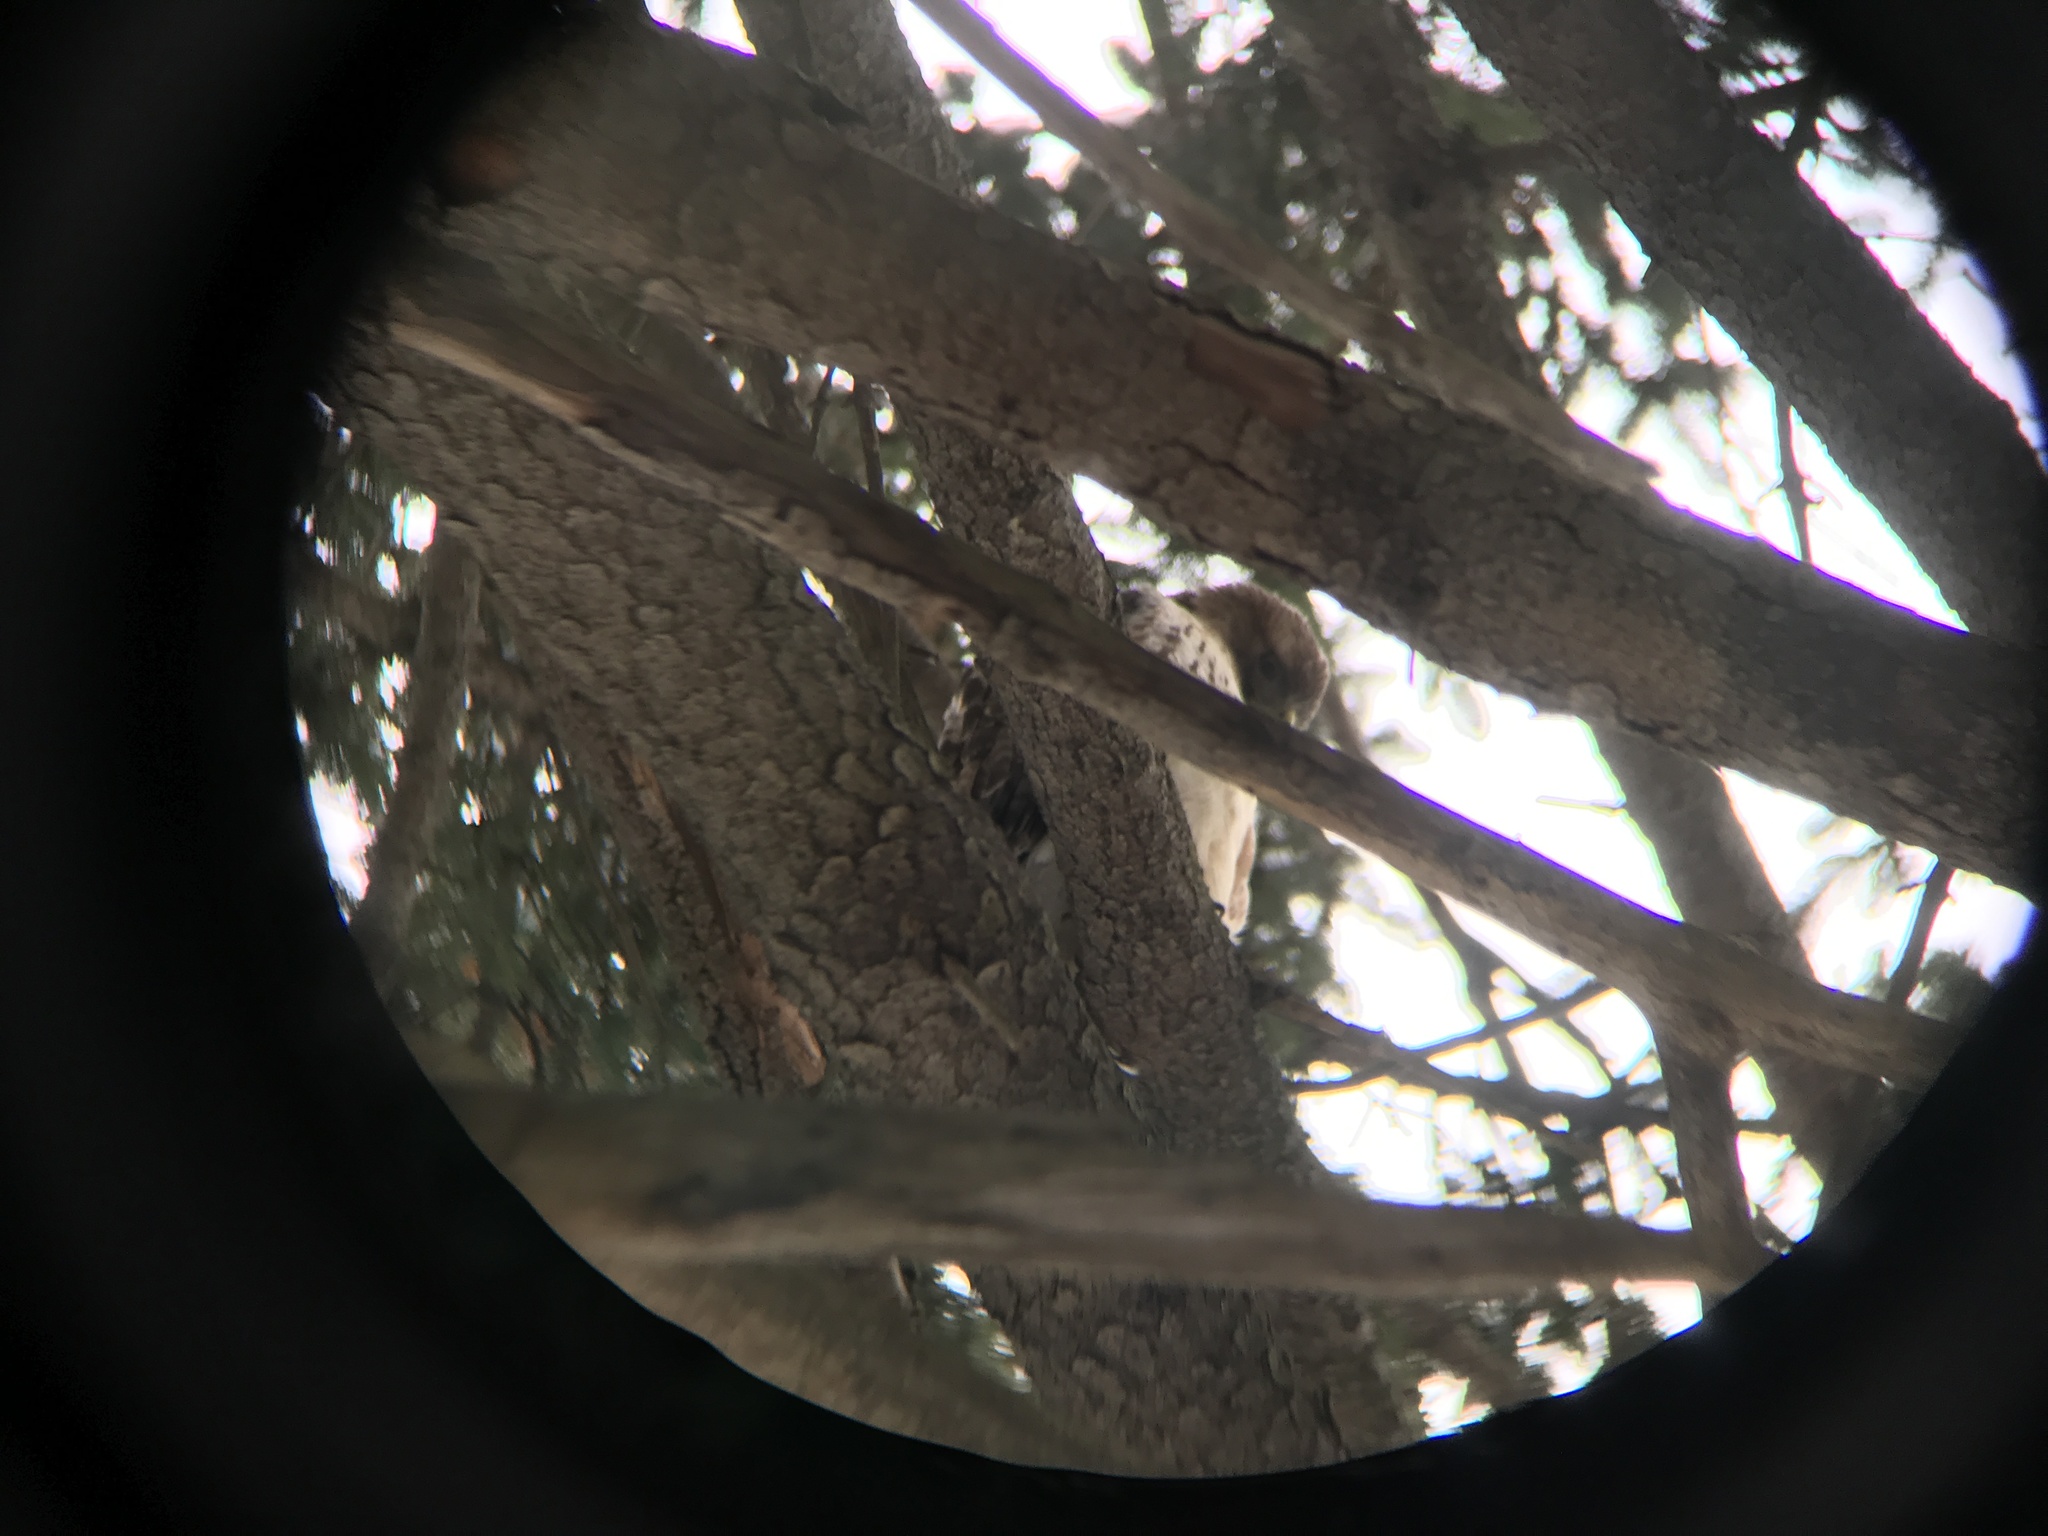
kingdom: Animalia
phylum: Chordata
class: Aves
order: Accipitriformes
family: Accipitridae
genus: Buteo
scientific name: Buteo jamaicensis
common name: Red-tailed hawk
